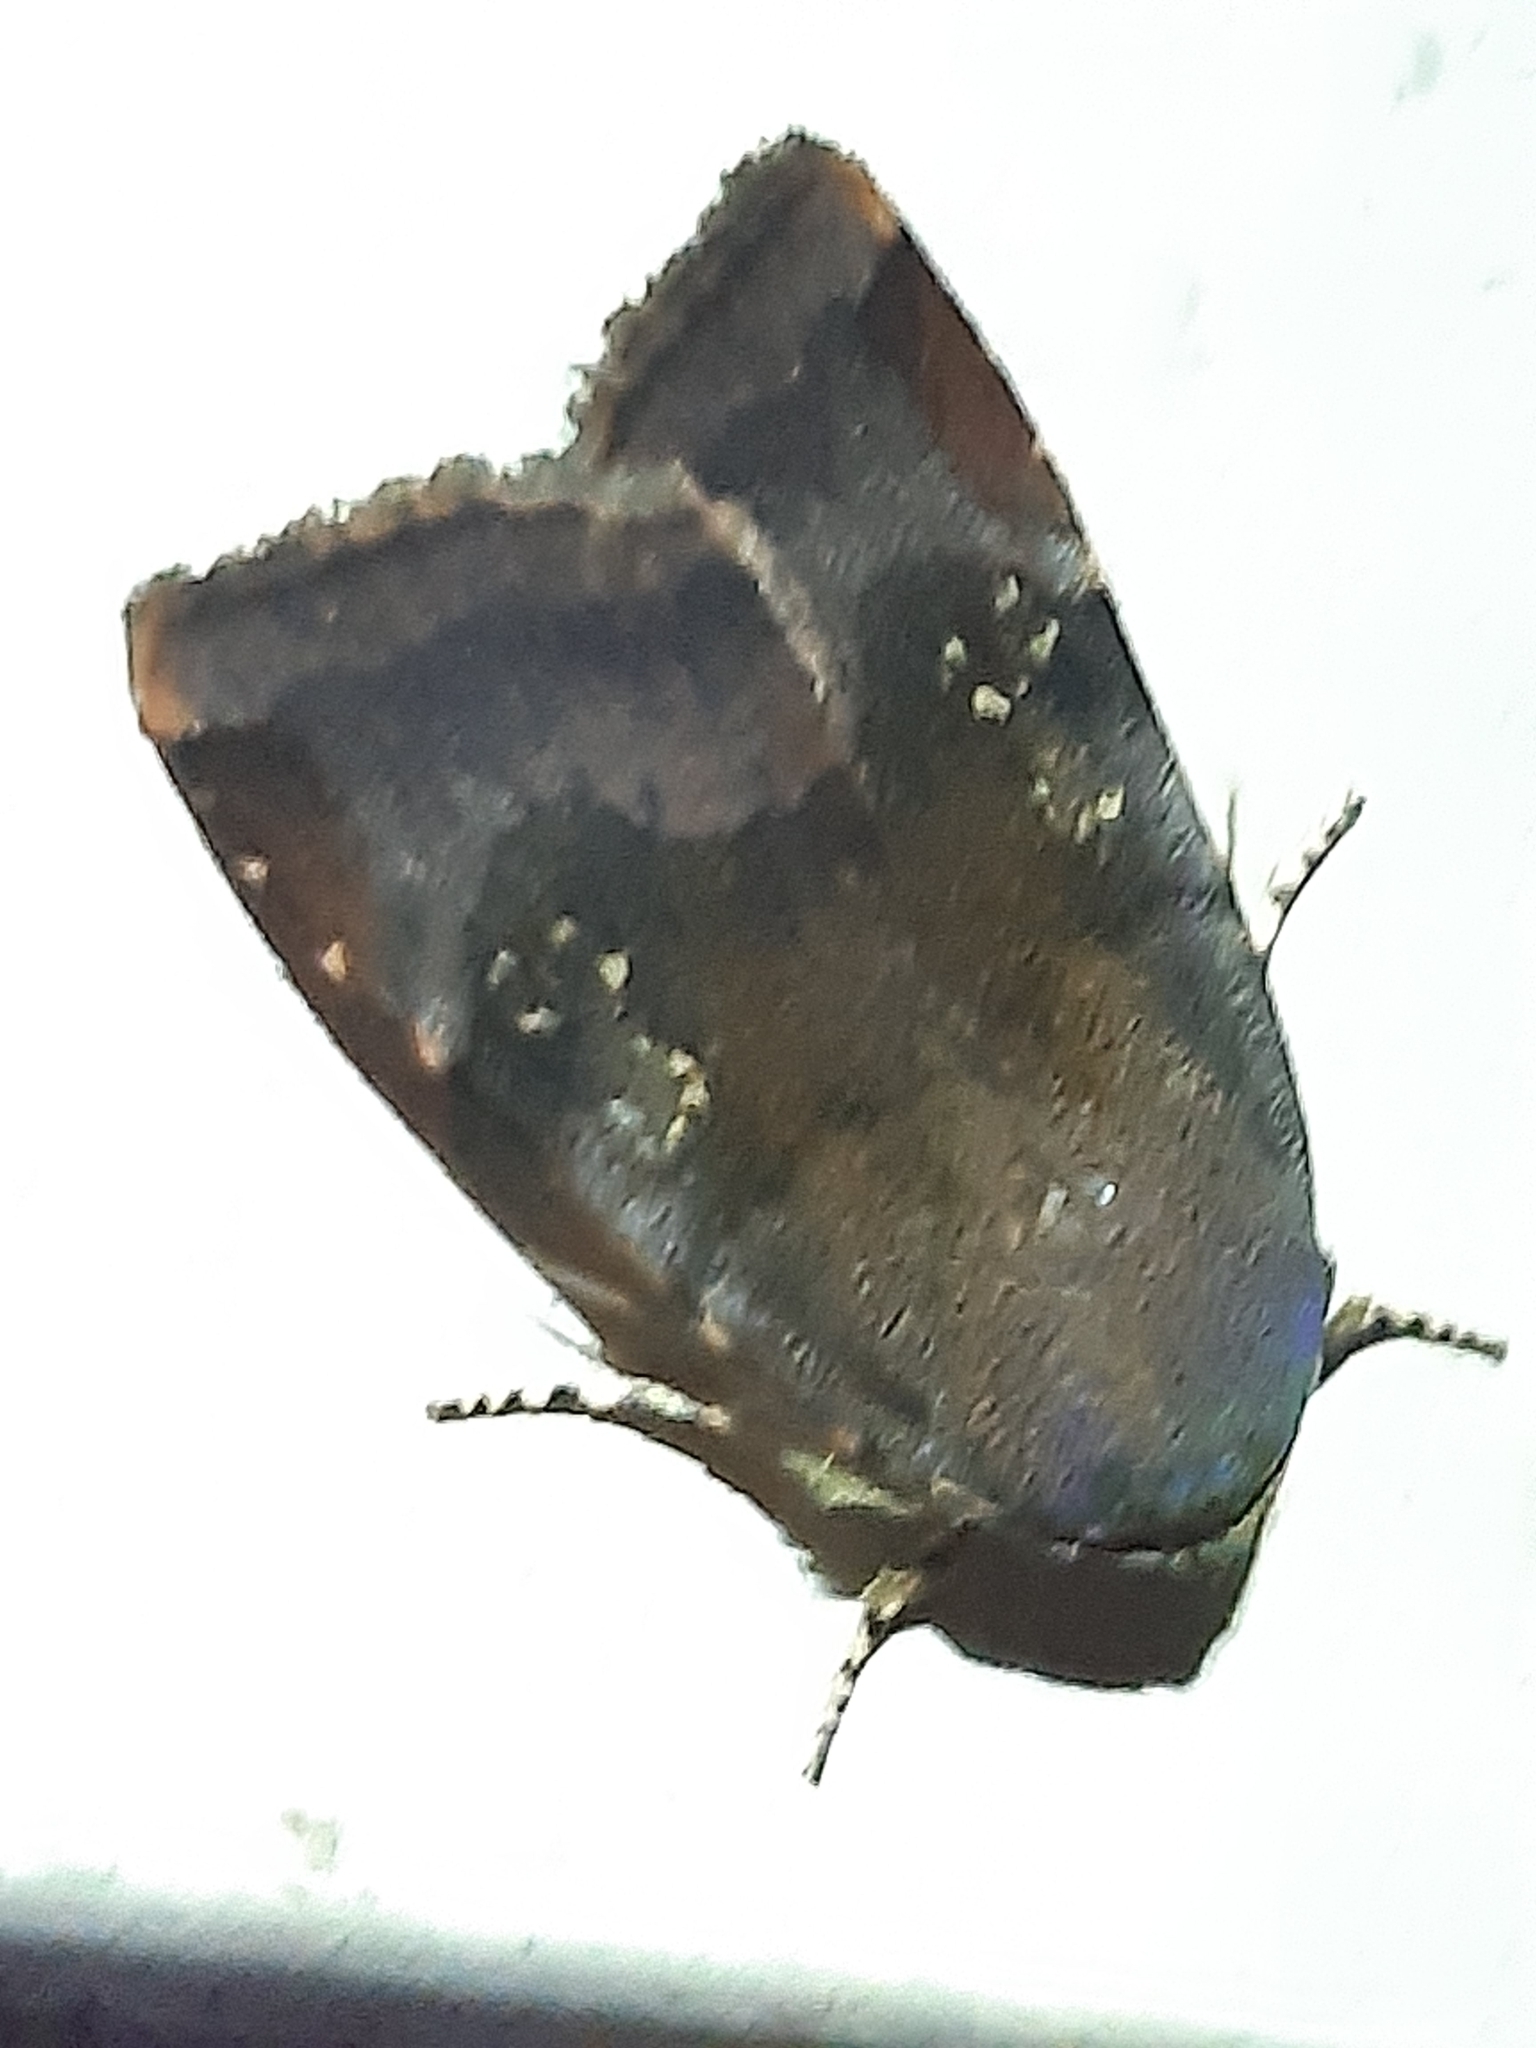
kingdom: Animalia
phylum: Arthropoda
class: Insecta
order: Lepidoptera
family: Noctuidae
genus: Noctua
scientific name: Noctua
